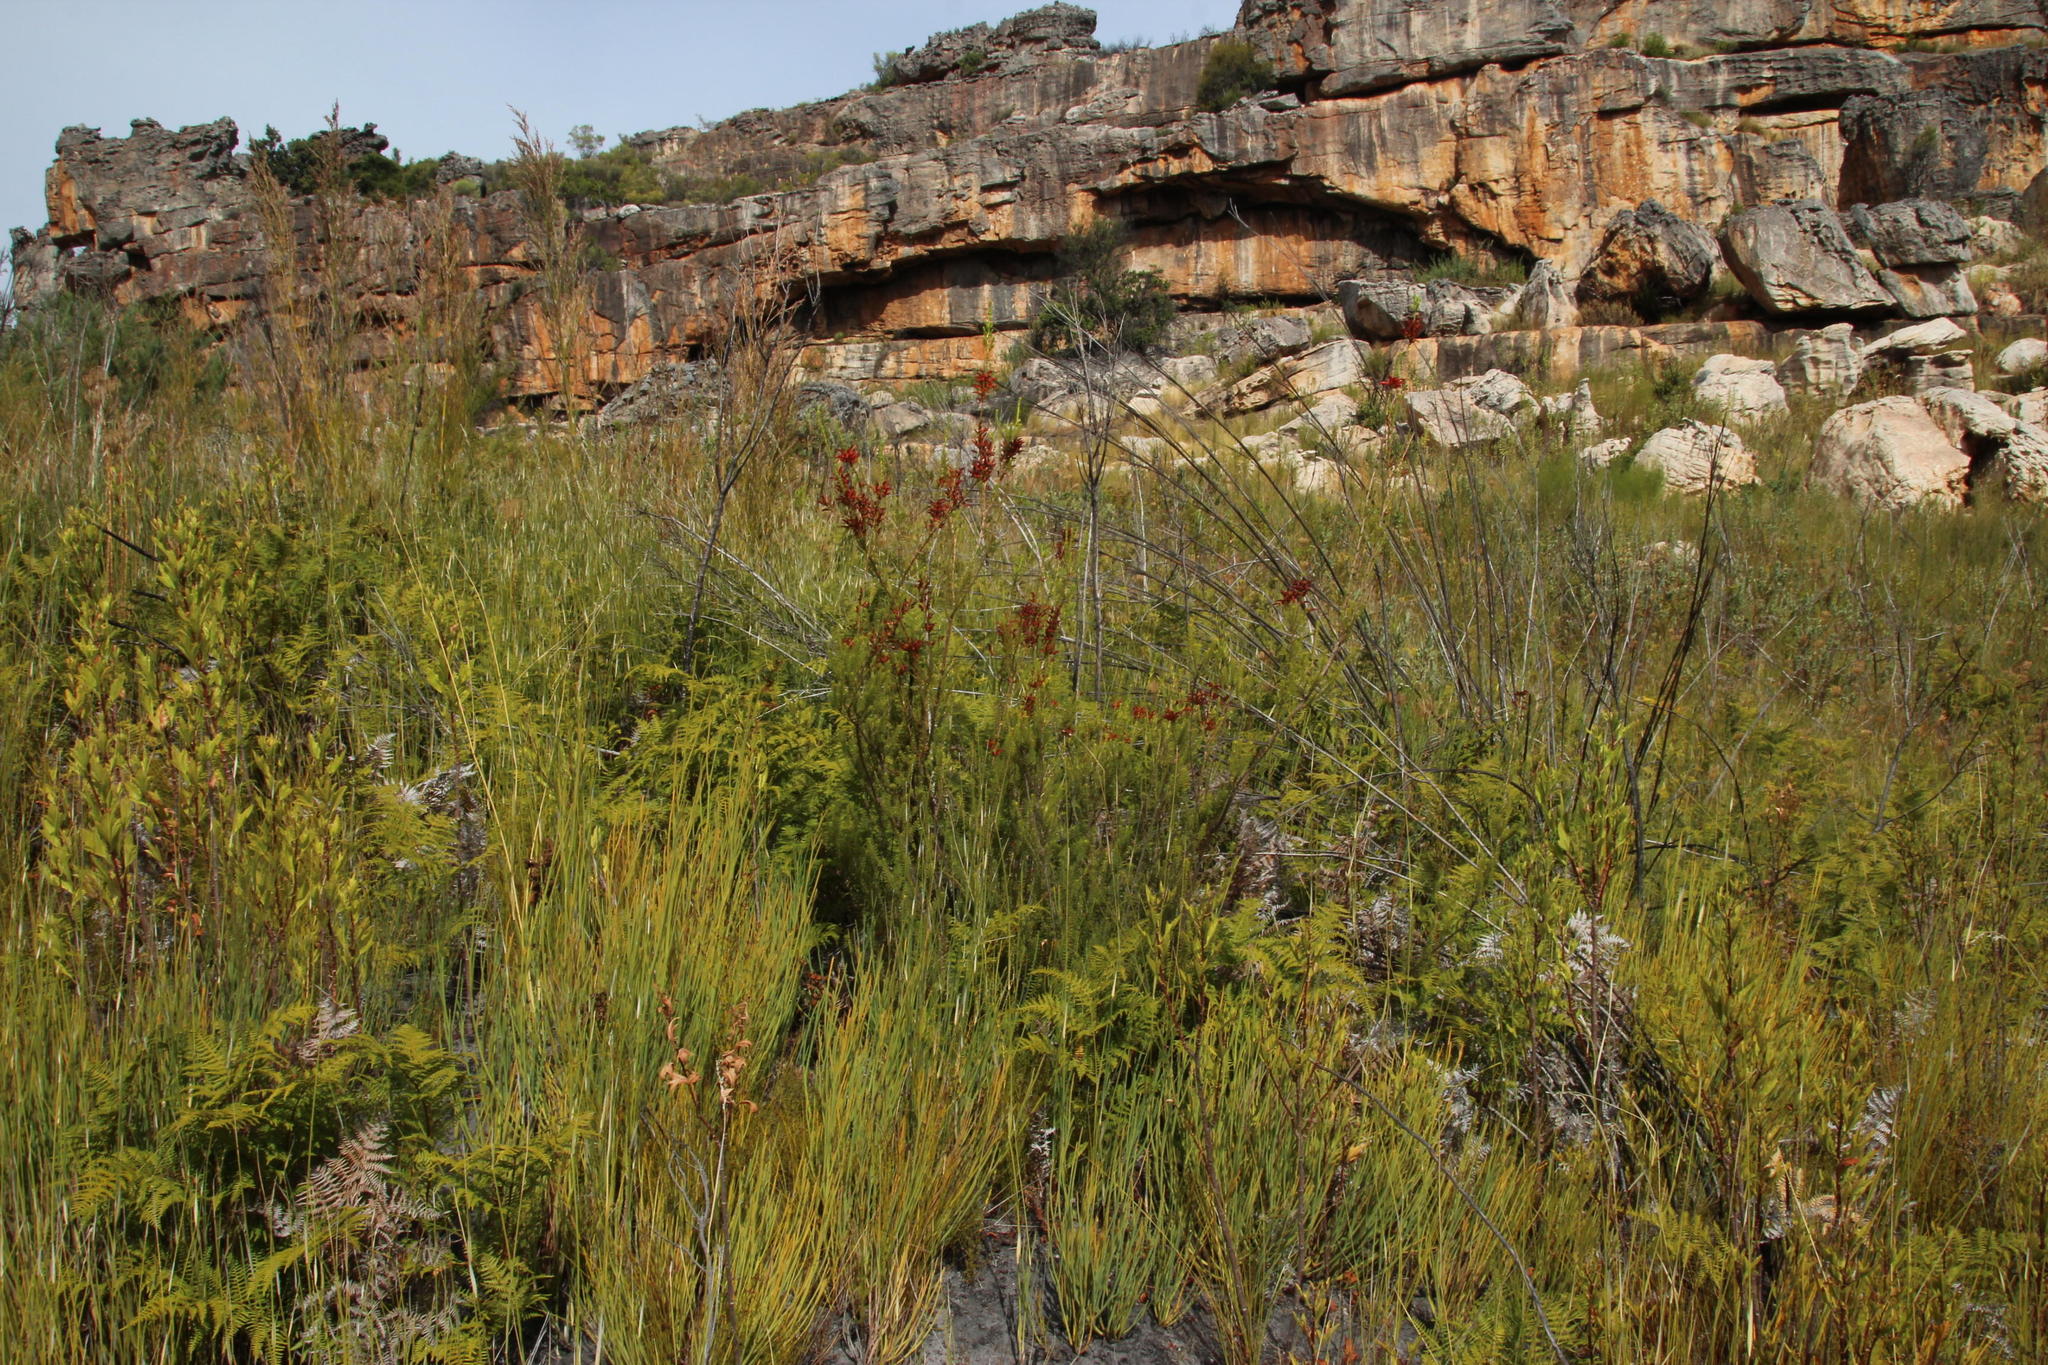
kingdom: Plantae
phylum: Tracheophyta
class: Magnoliopsida
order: Ericales
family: Ericaceae
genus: Erica
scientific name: Erica mammosa
